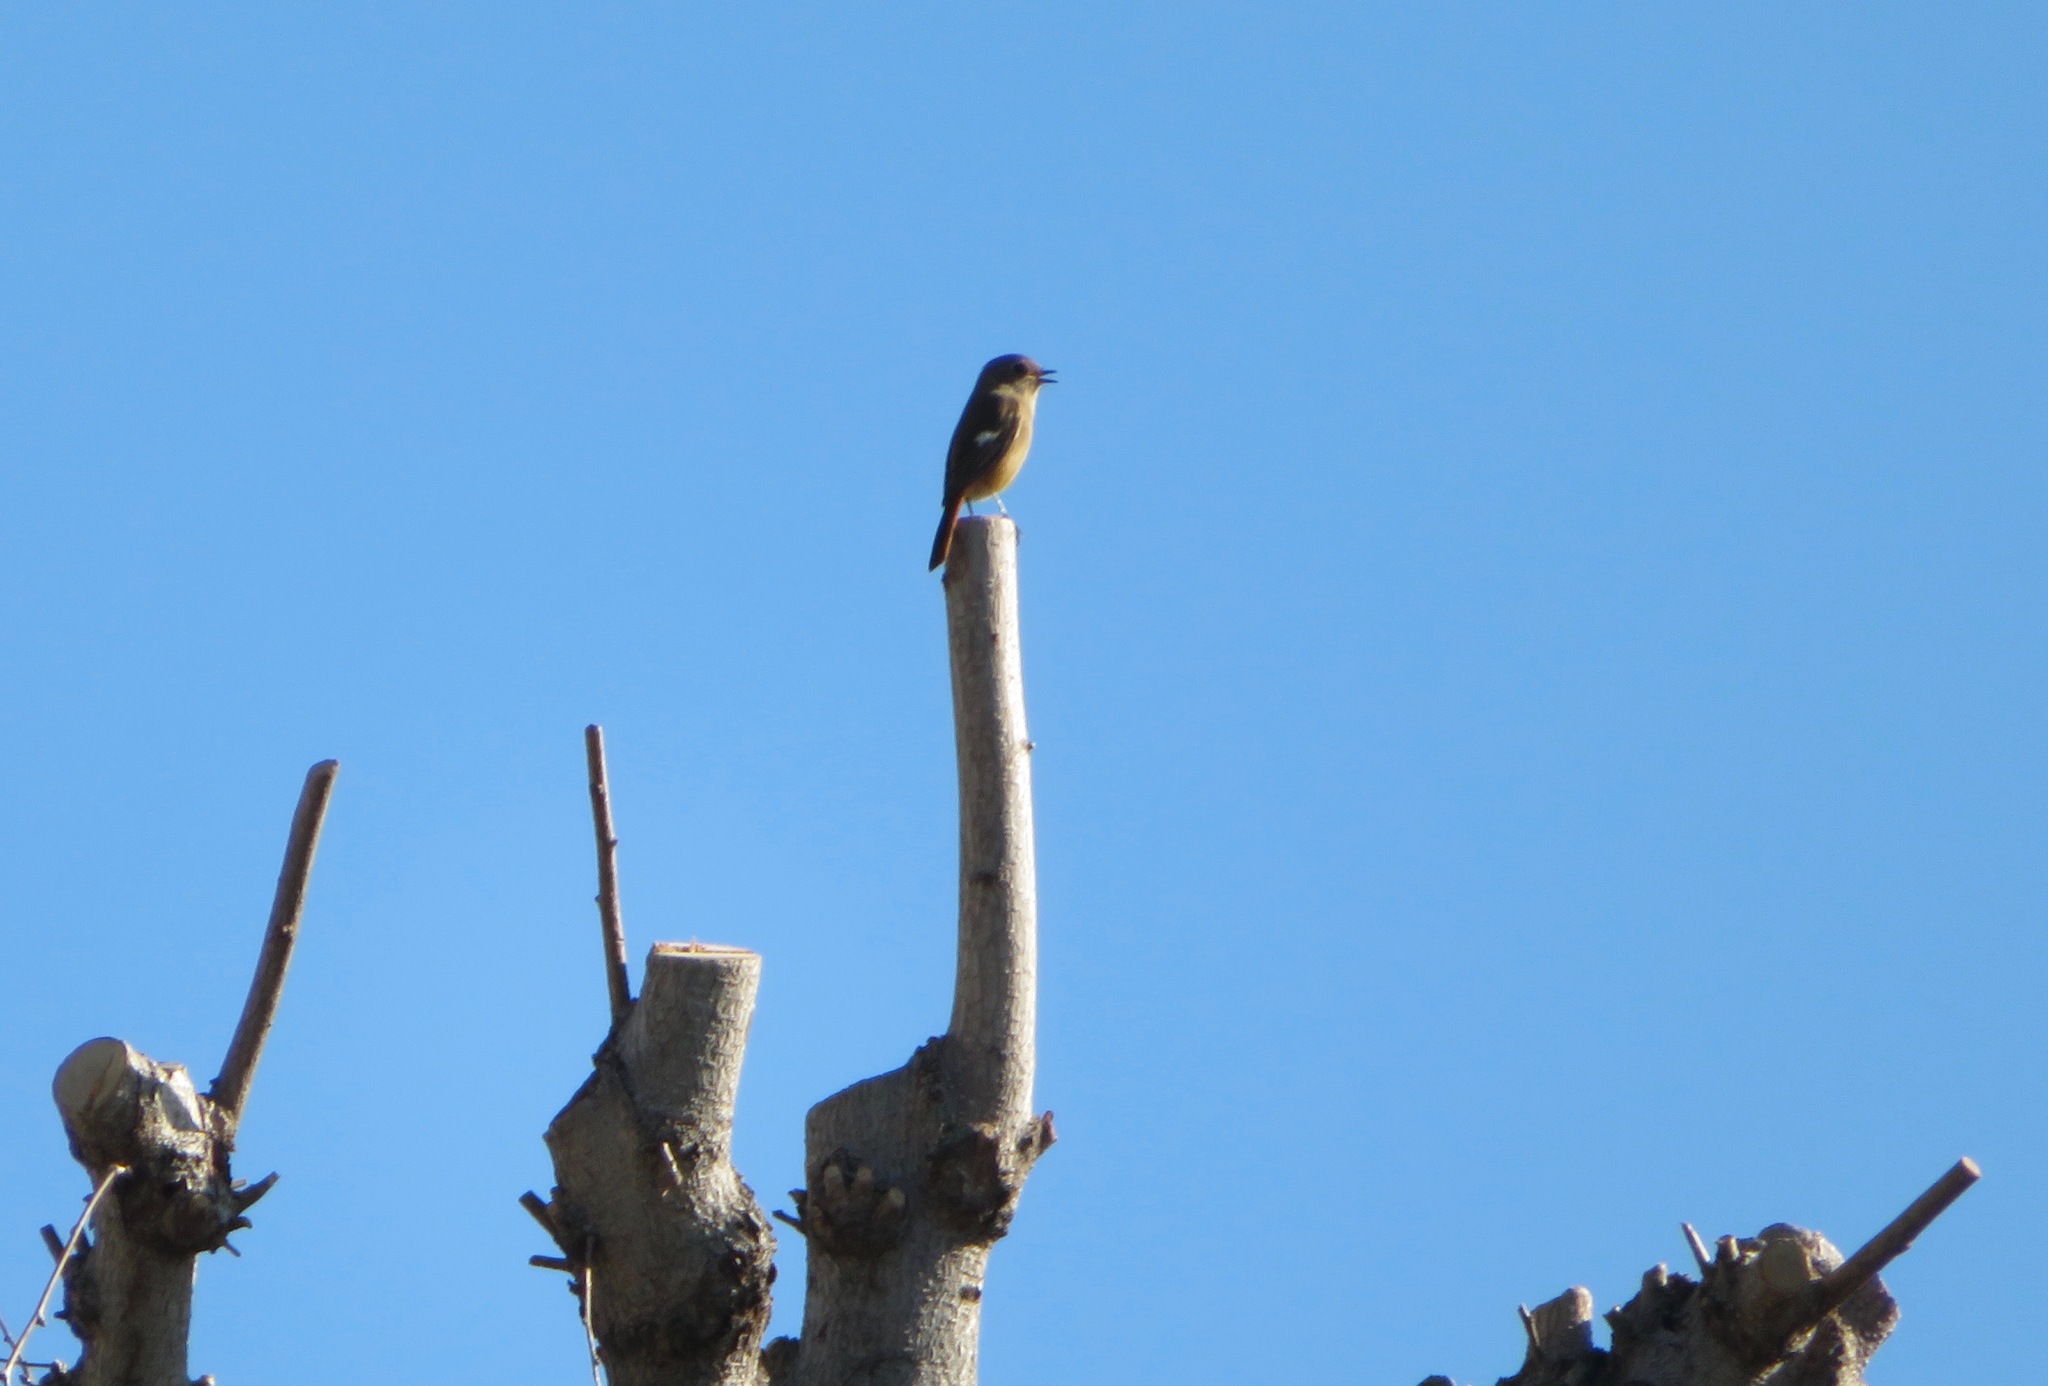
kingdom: Animalia
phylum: Chordata
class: Aves
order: Passeriformes
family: Muscicapidae
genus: Phoenicurus
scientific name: Phoenicurus auroreus
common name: Daurian redstart
